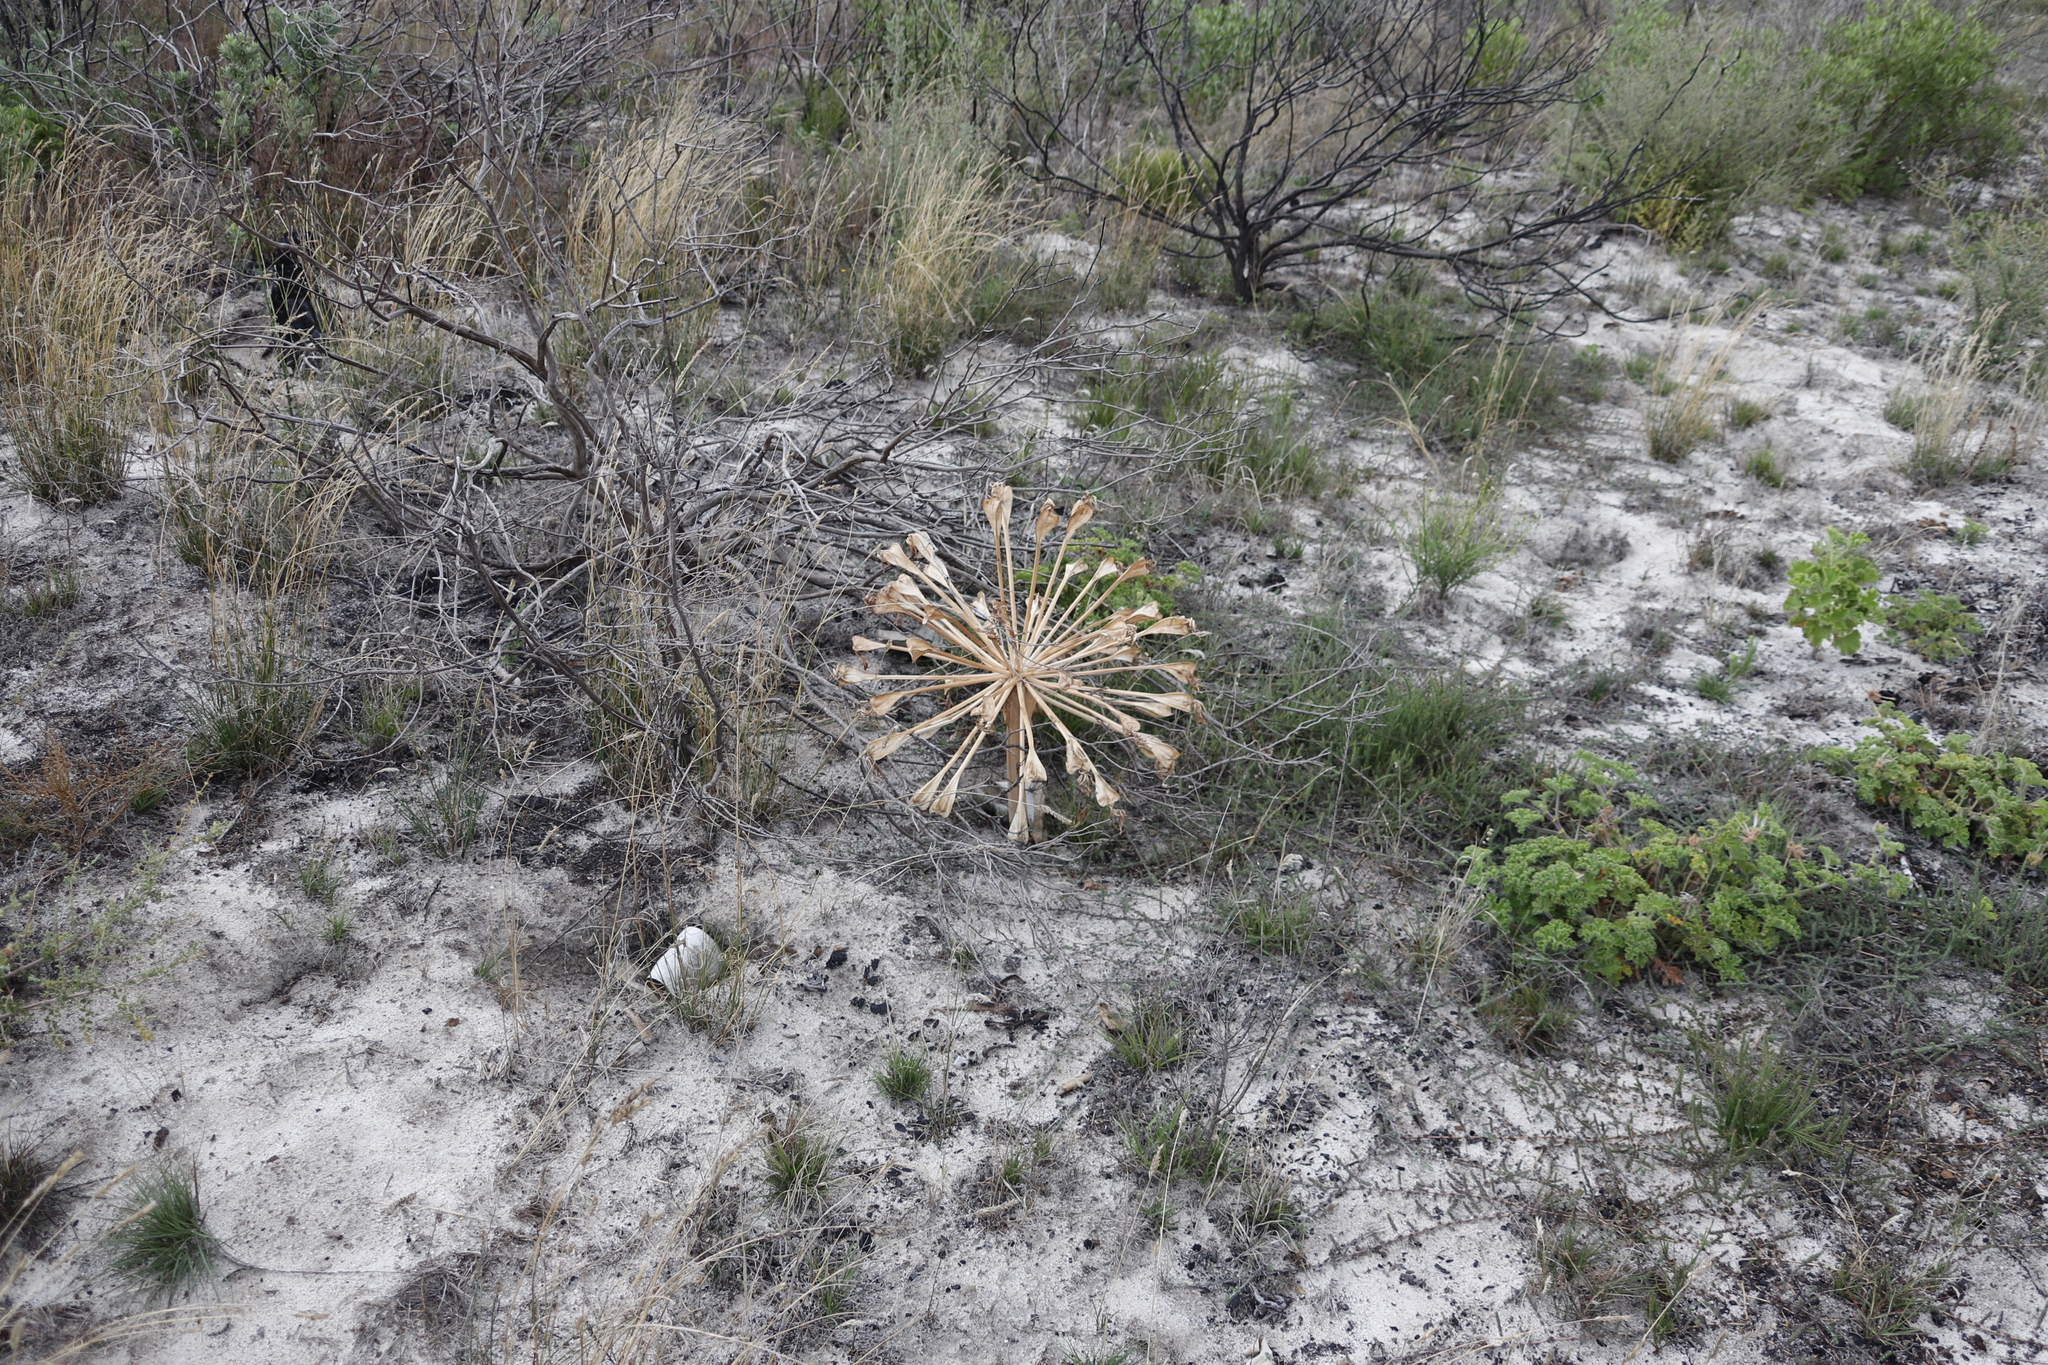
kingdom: Plantae
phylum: Tracheophyta
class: Liliopsida
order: Asparagales
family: Amaryllidaceae
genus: Brunsvigia
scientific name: Brunsvigia orientalis
